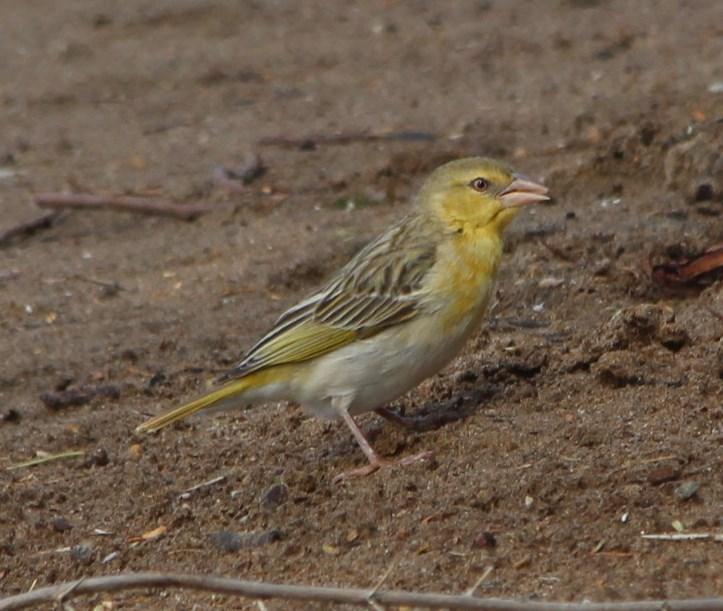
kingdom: Animalia
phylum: Chordata
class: Aves
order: Passeriformes
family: Ploceidae
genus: Ploceus
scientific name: Ploceus velatus
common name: Southern masked weaver
